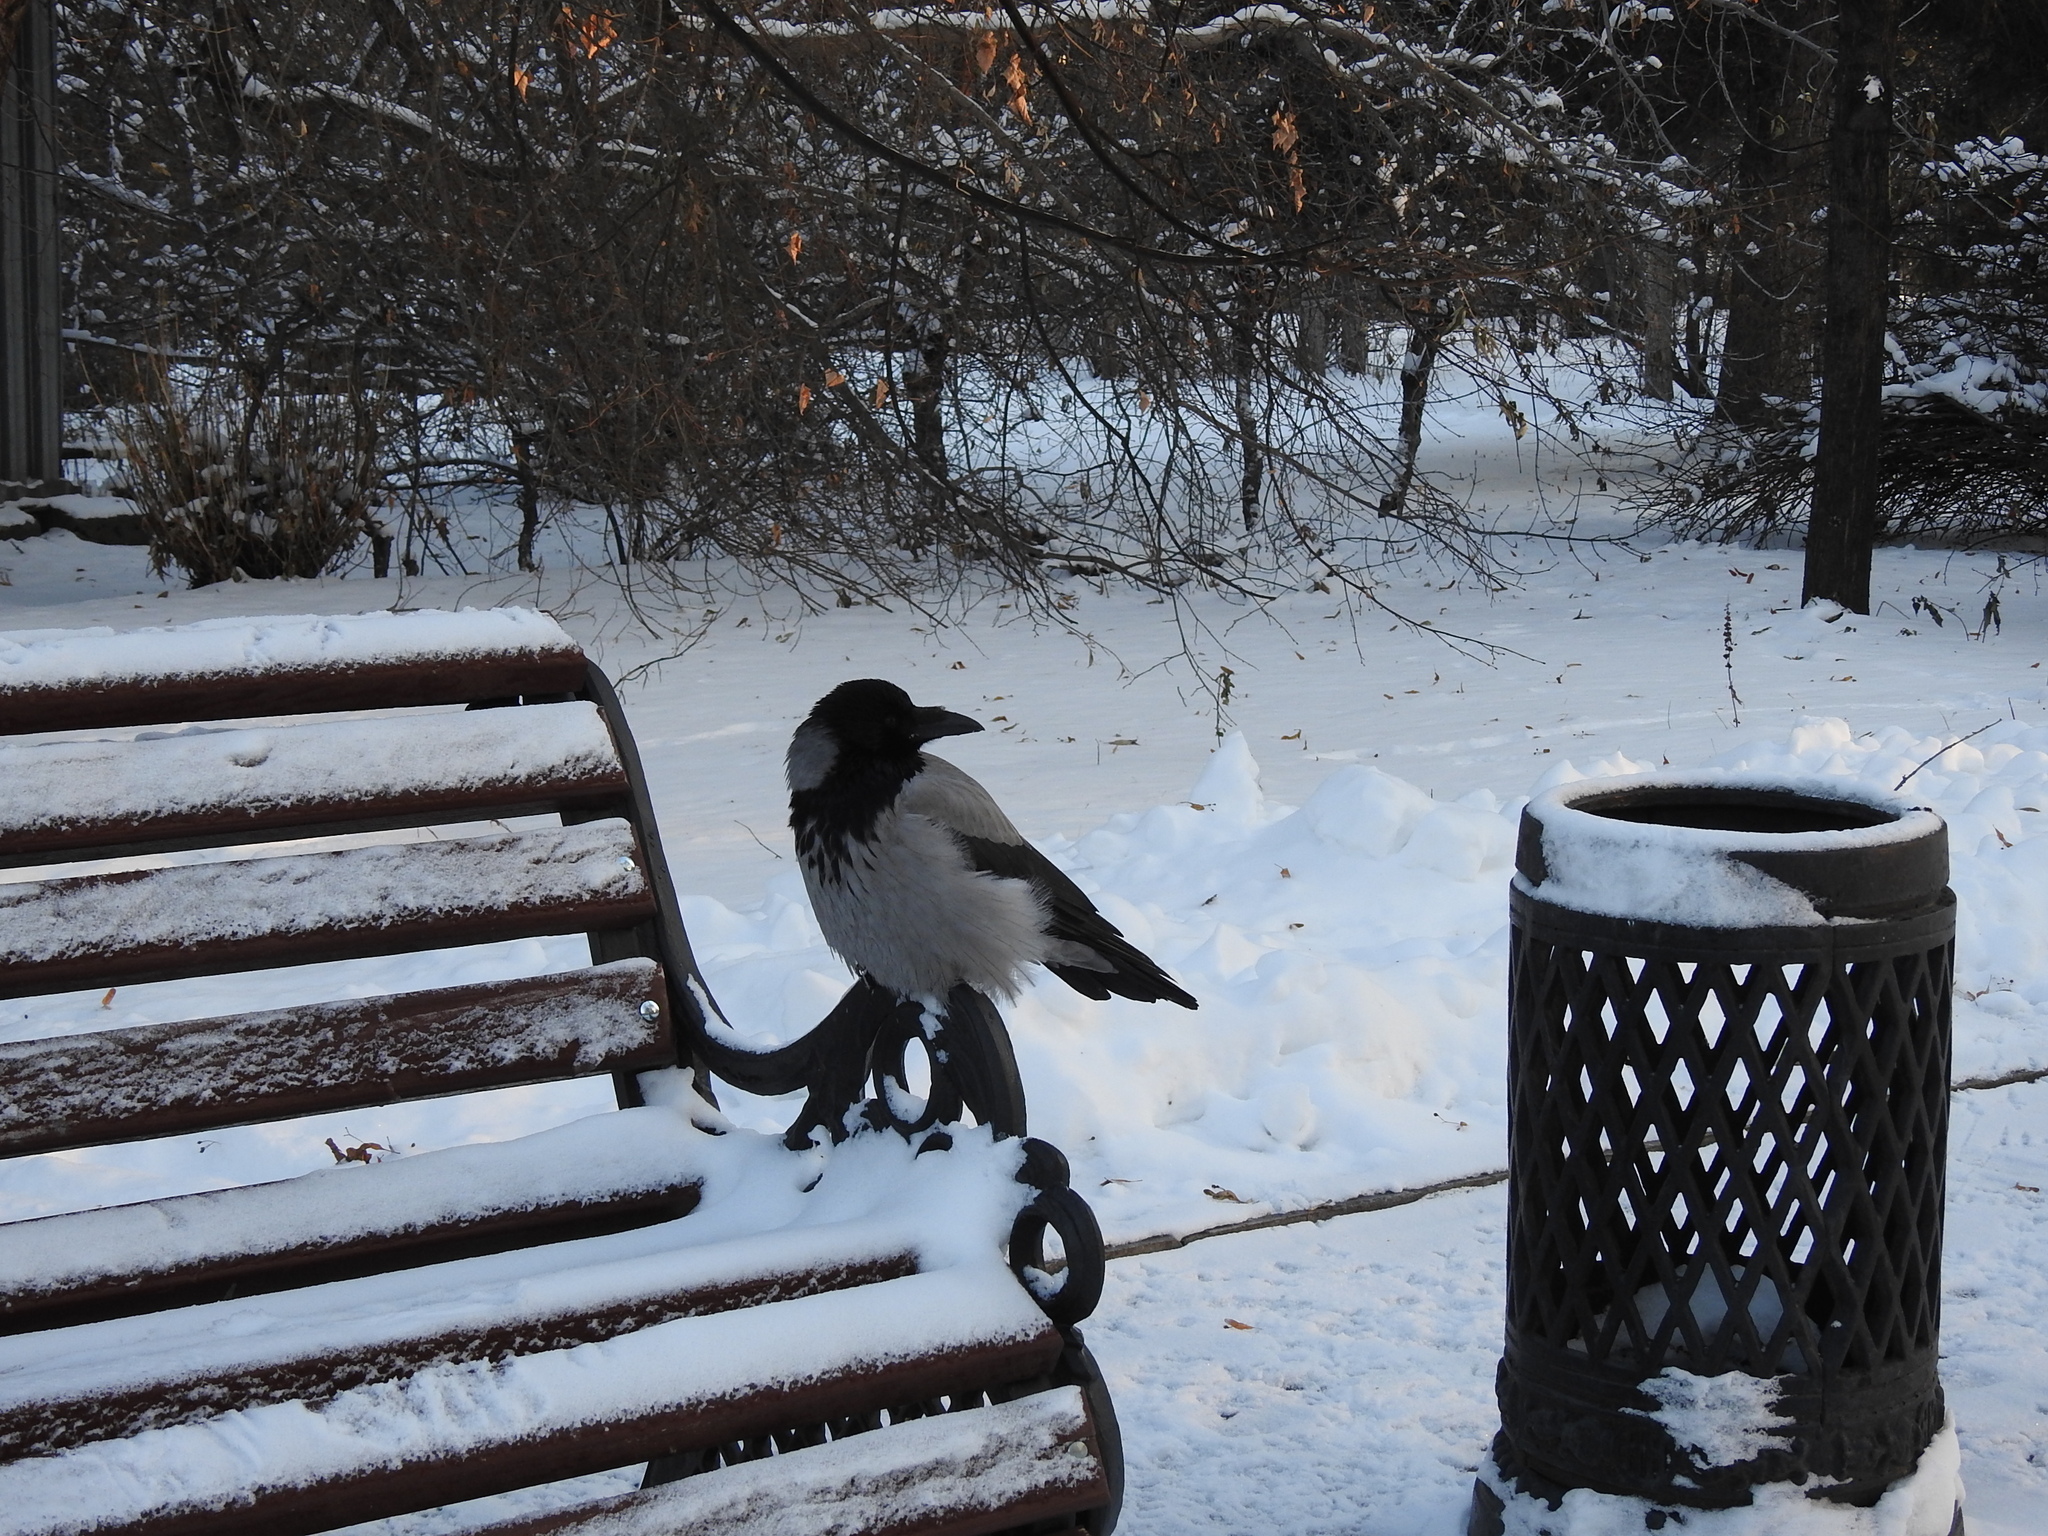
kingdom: Animalia
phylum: Chordata
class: Aves
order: Passeriformes
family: Corvidae
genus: Corvus
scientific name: Corvus cornix
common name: Hooded crow
